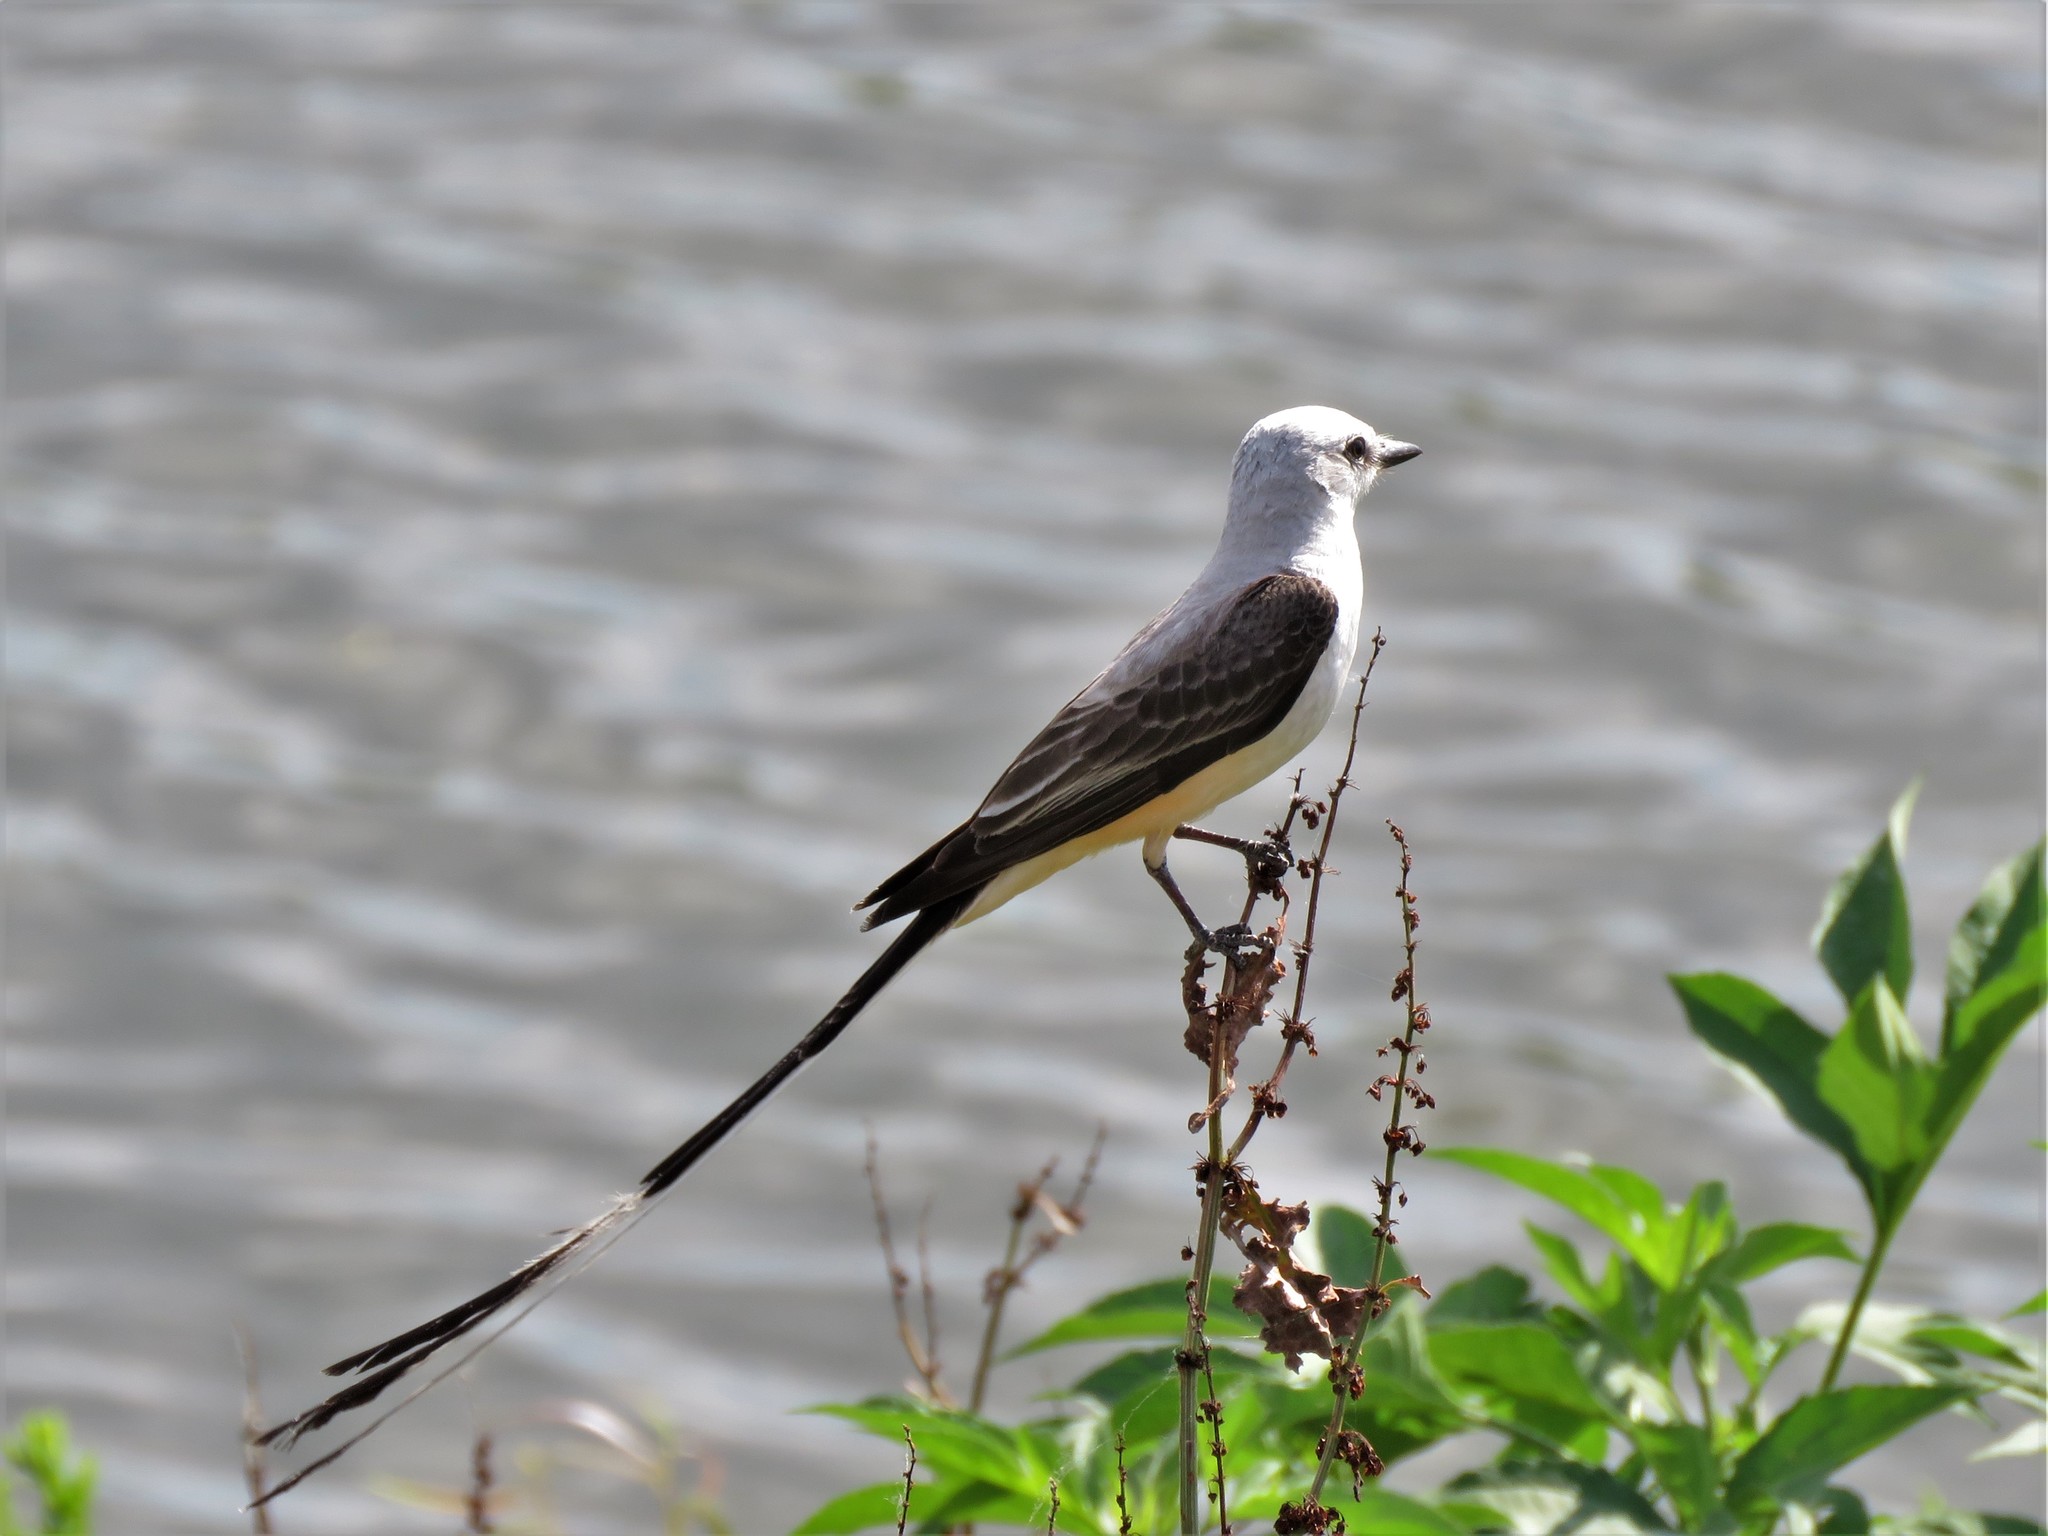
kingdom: Animalia
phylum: Chordata
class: Aves
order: Passeriformes
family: Tyrannidae
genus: Tyrannus
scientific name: Tyrannus forficatus
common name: Scissor-tailed flycatcher
